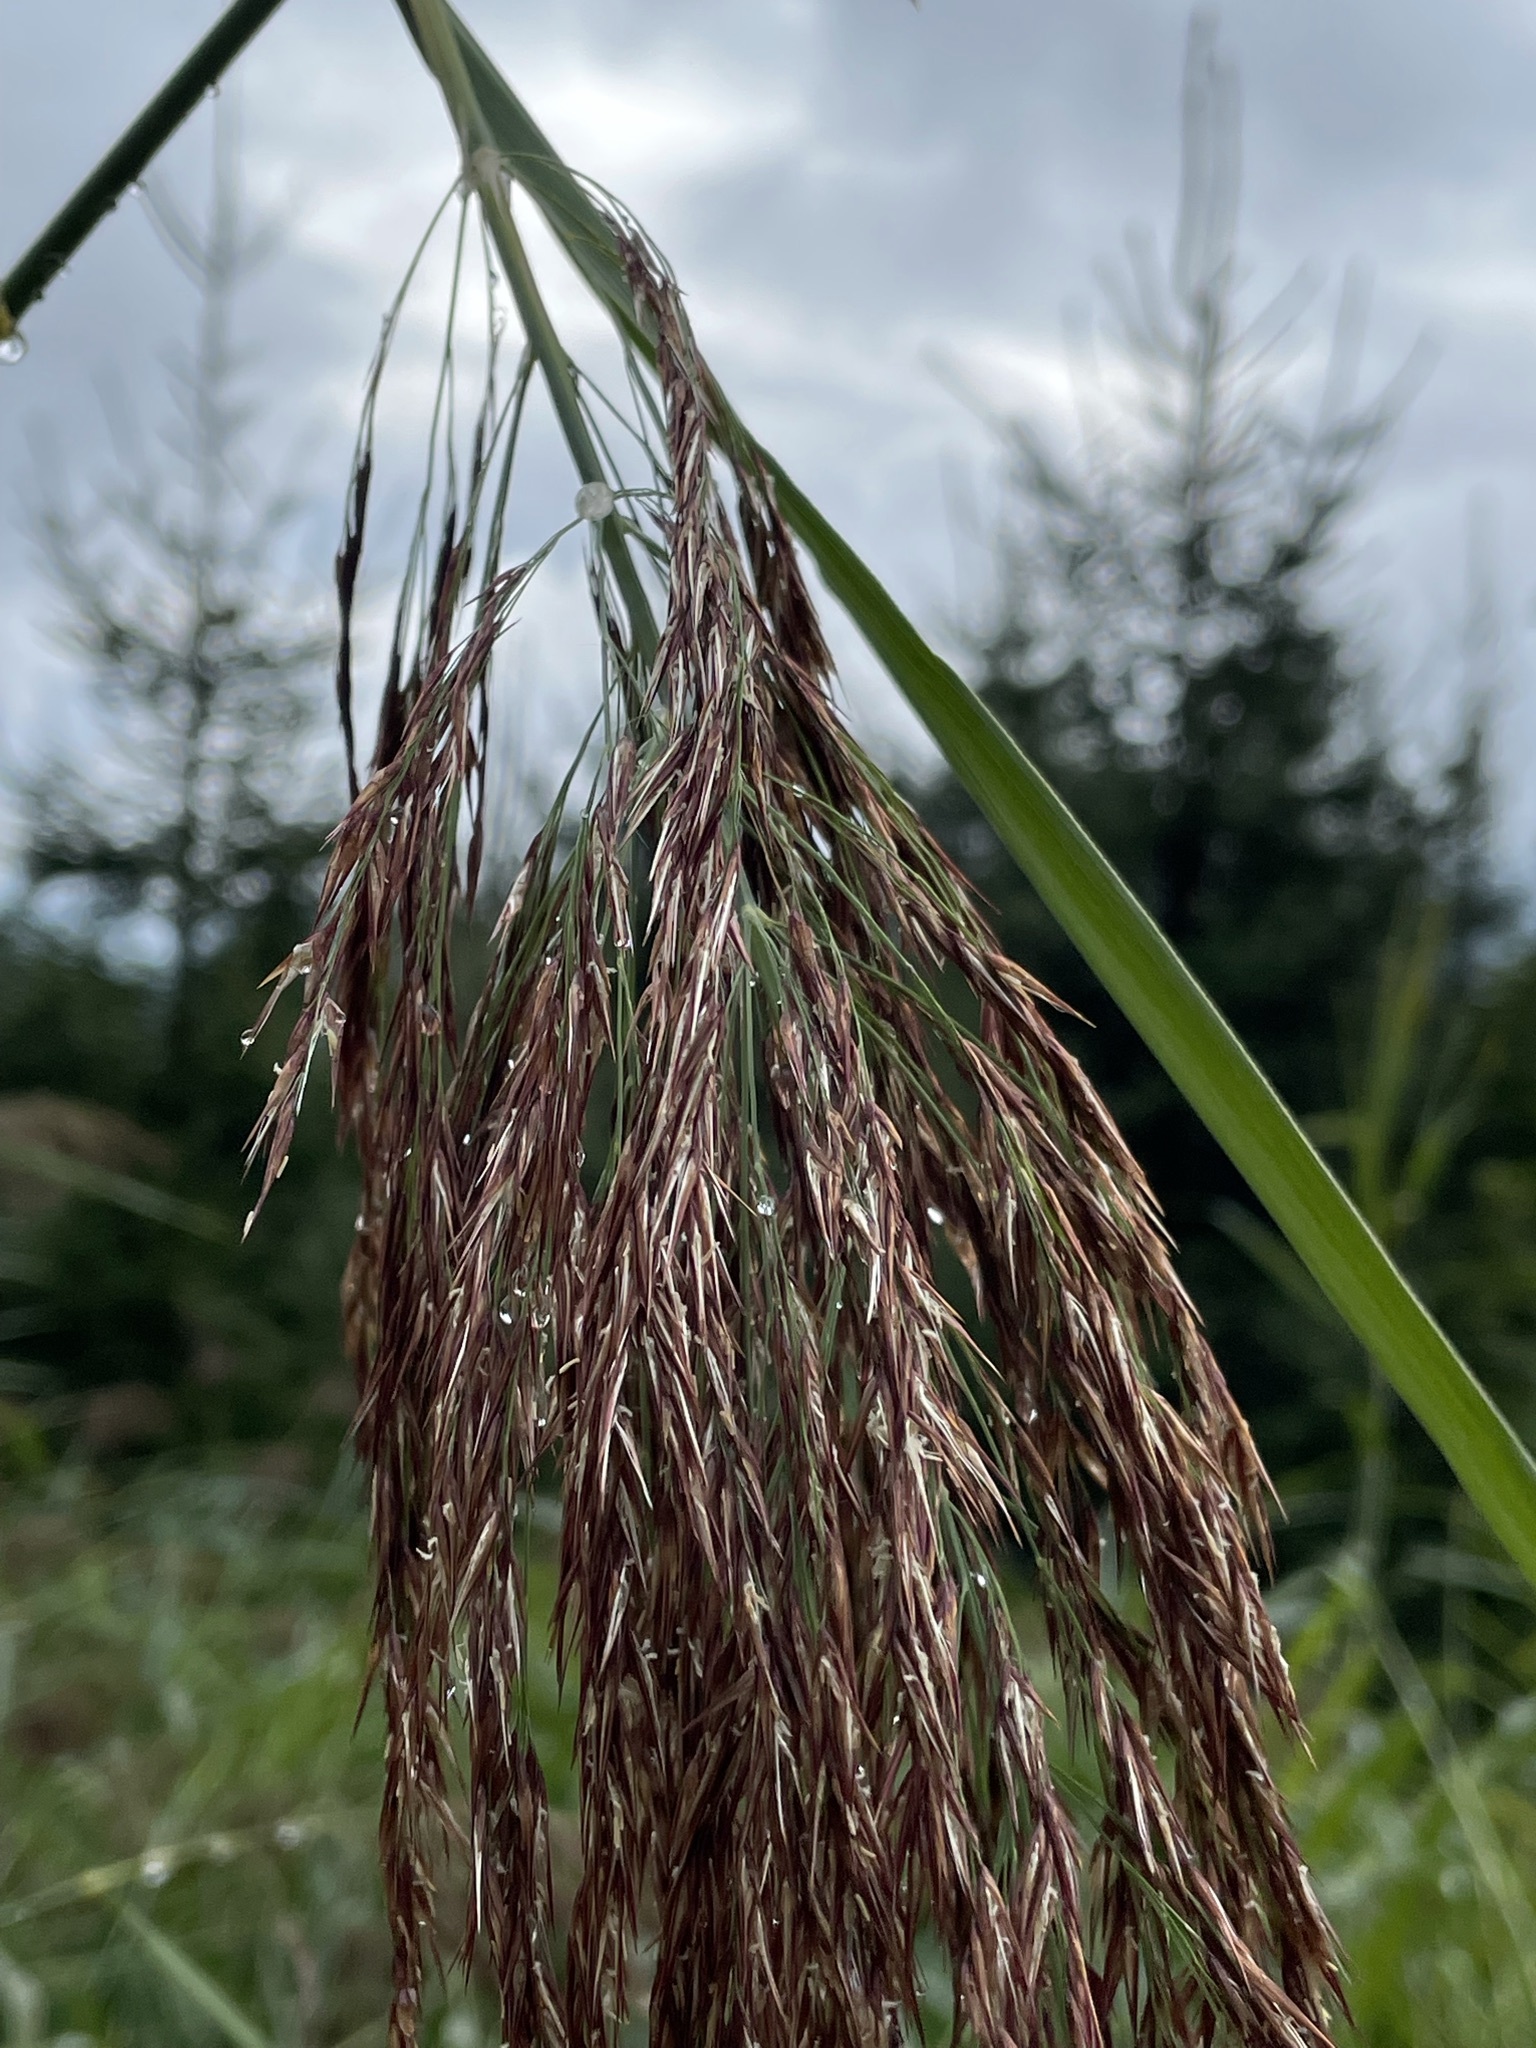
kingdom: Plantae
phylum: Tracheophyta
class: Liliopsida
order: Poales
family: Poaceae
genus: Phragmites
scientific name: Phragmites australis
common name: Common reed
